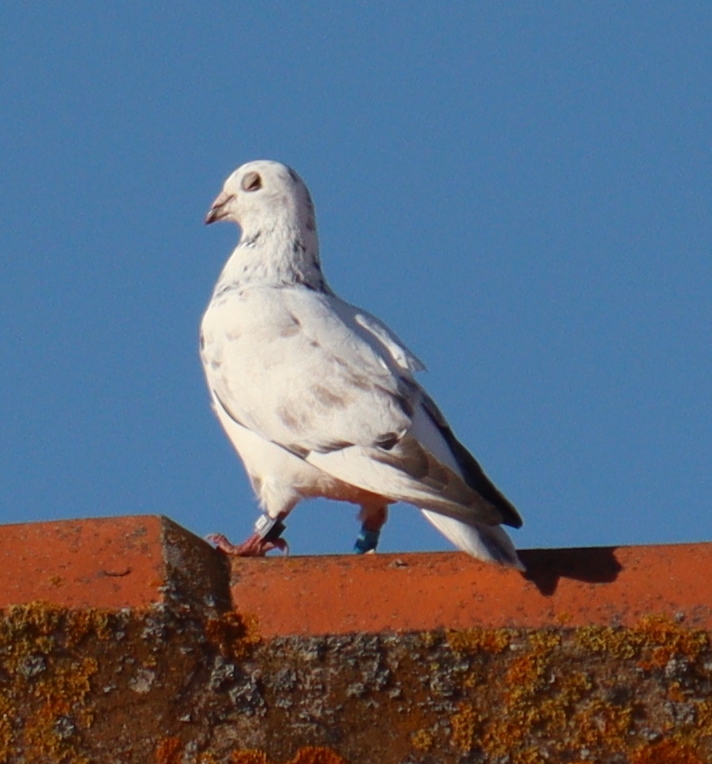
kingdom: Animalia
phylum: Chordata
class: Aves
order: Columbiformes
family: Columbidae
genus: Columba
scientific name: Columba livia
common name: Rock pigeon
